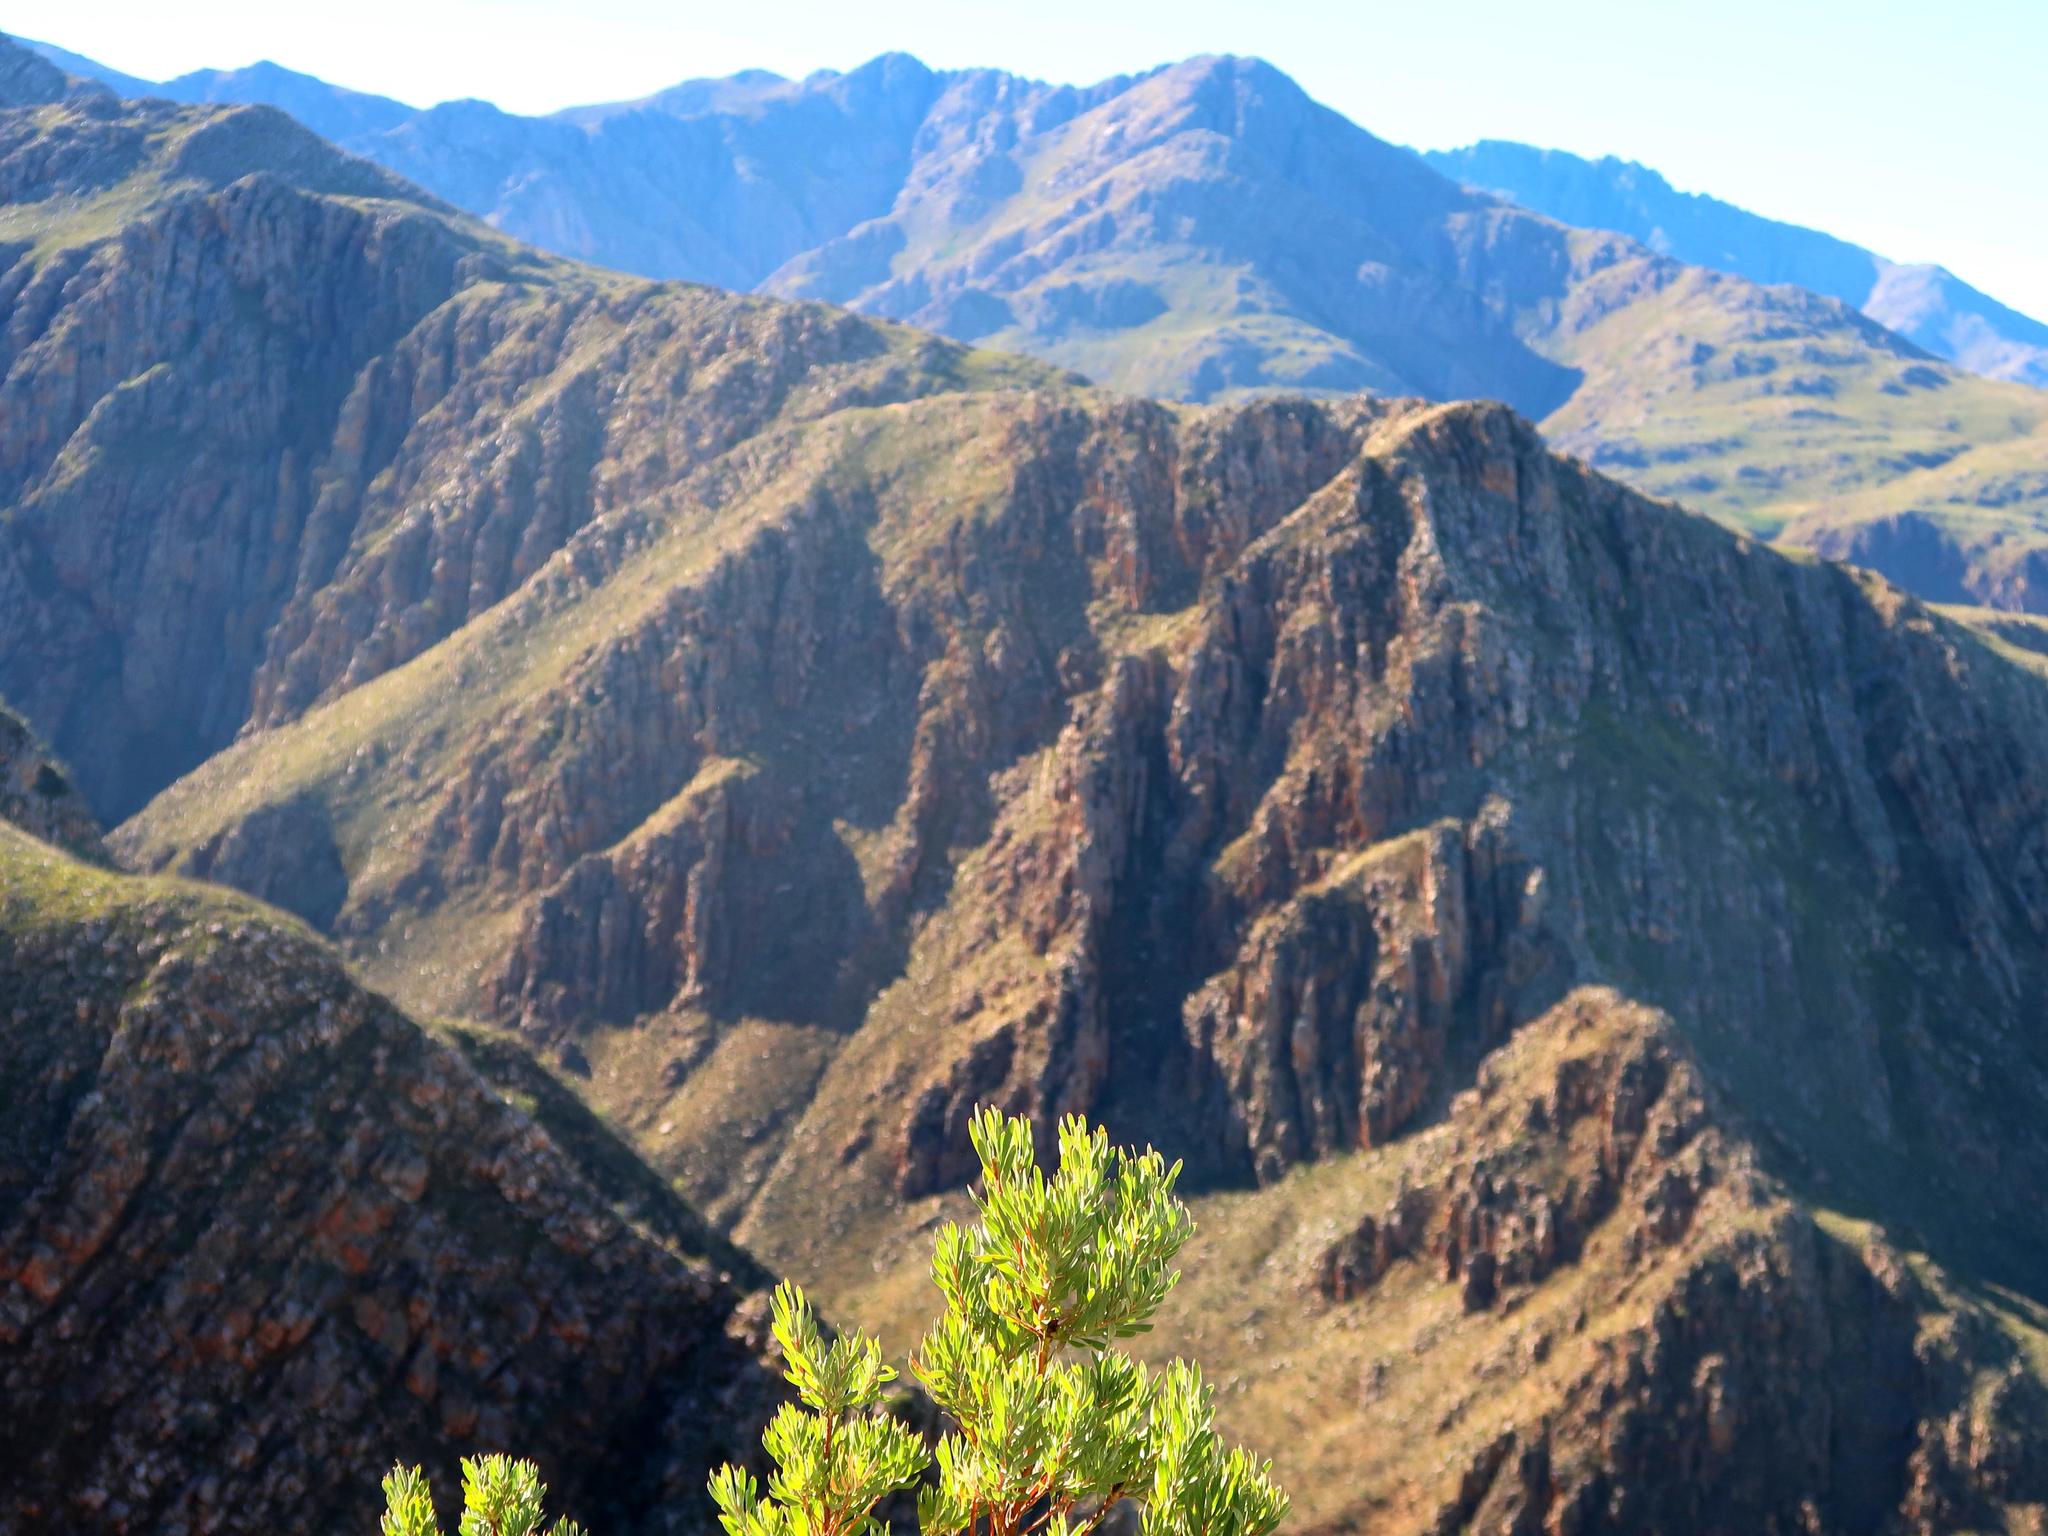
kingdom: Plantae
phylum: Tracheophyta
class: Magnoliopsida
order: Proteales
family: Proteaceae
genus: Leucadendron
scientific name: Leucadendron rubrum
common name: Spinning top
